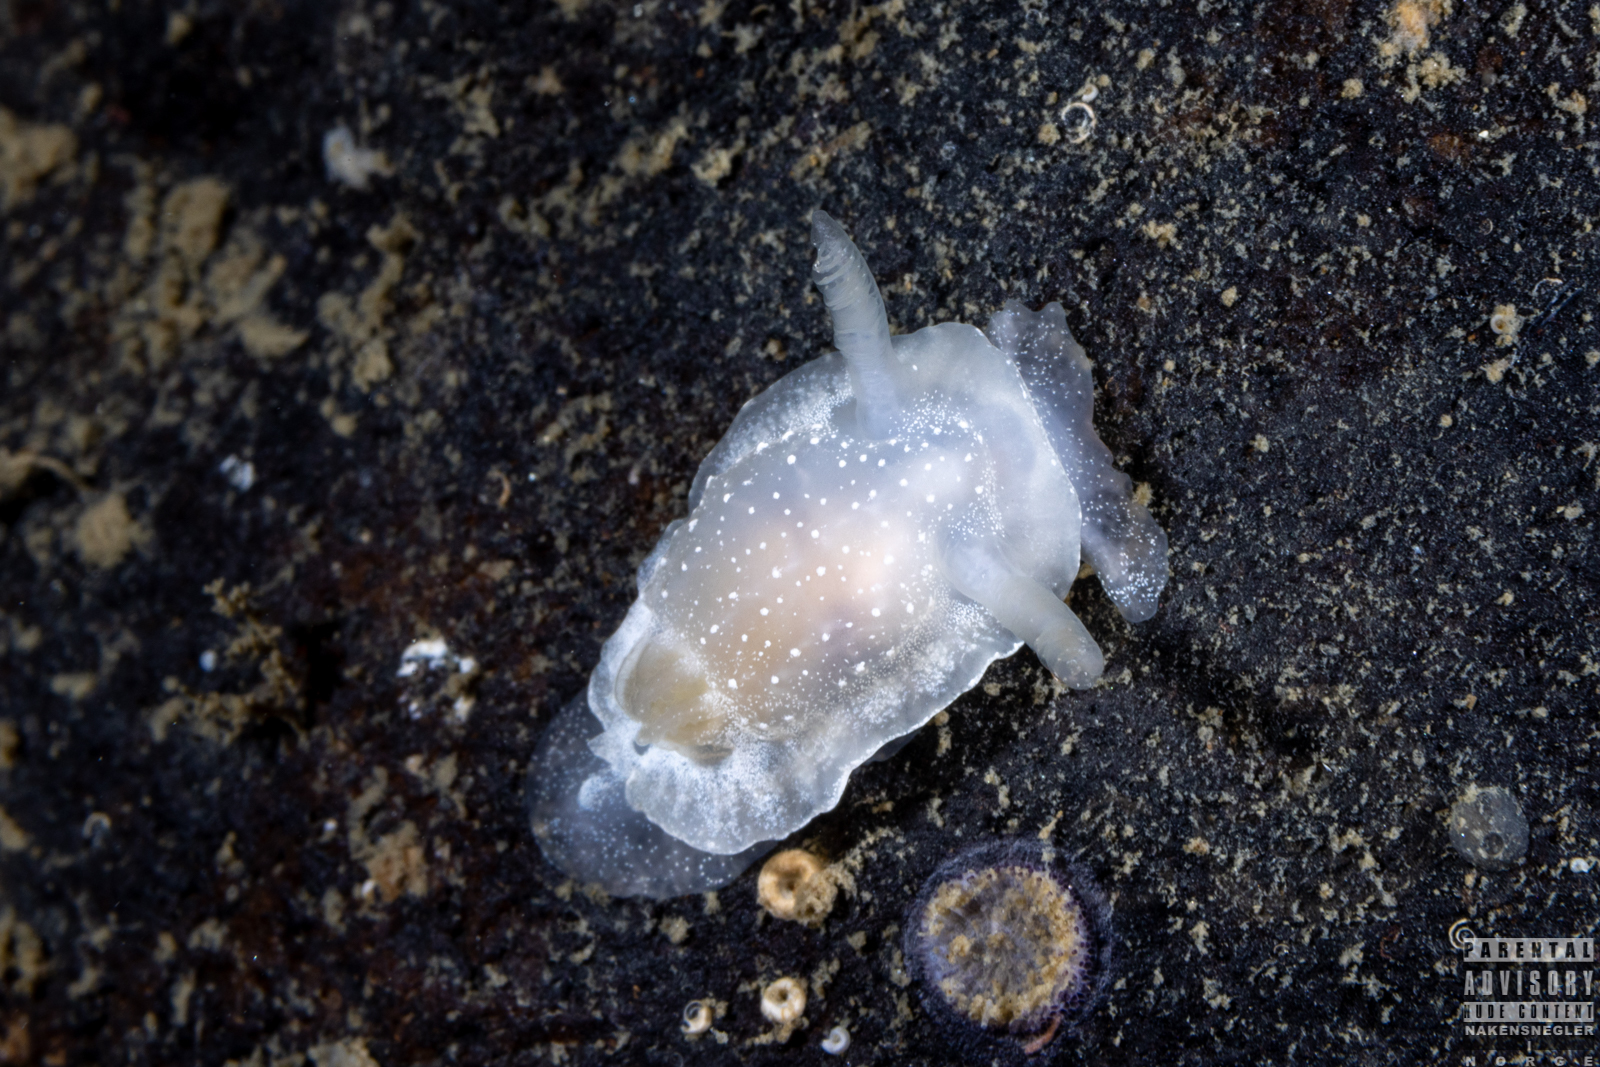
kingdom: Animalia
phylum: Mollusca
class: Gastropoda
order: Nudibranchia
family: Goniodorididae
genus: Okenia
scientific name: Okenia
